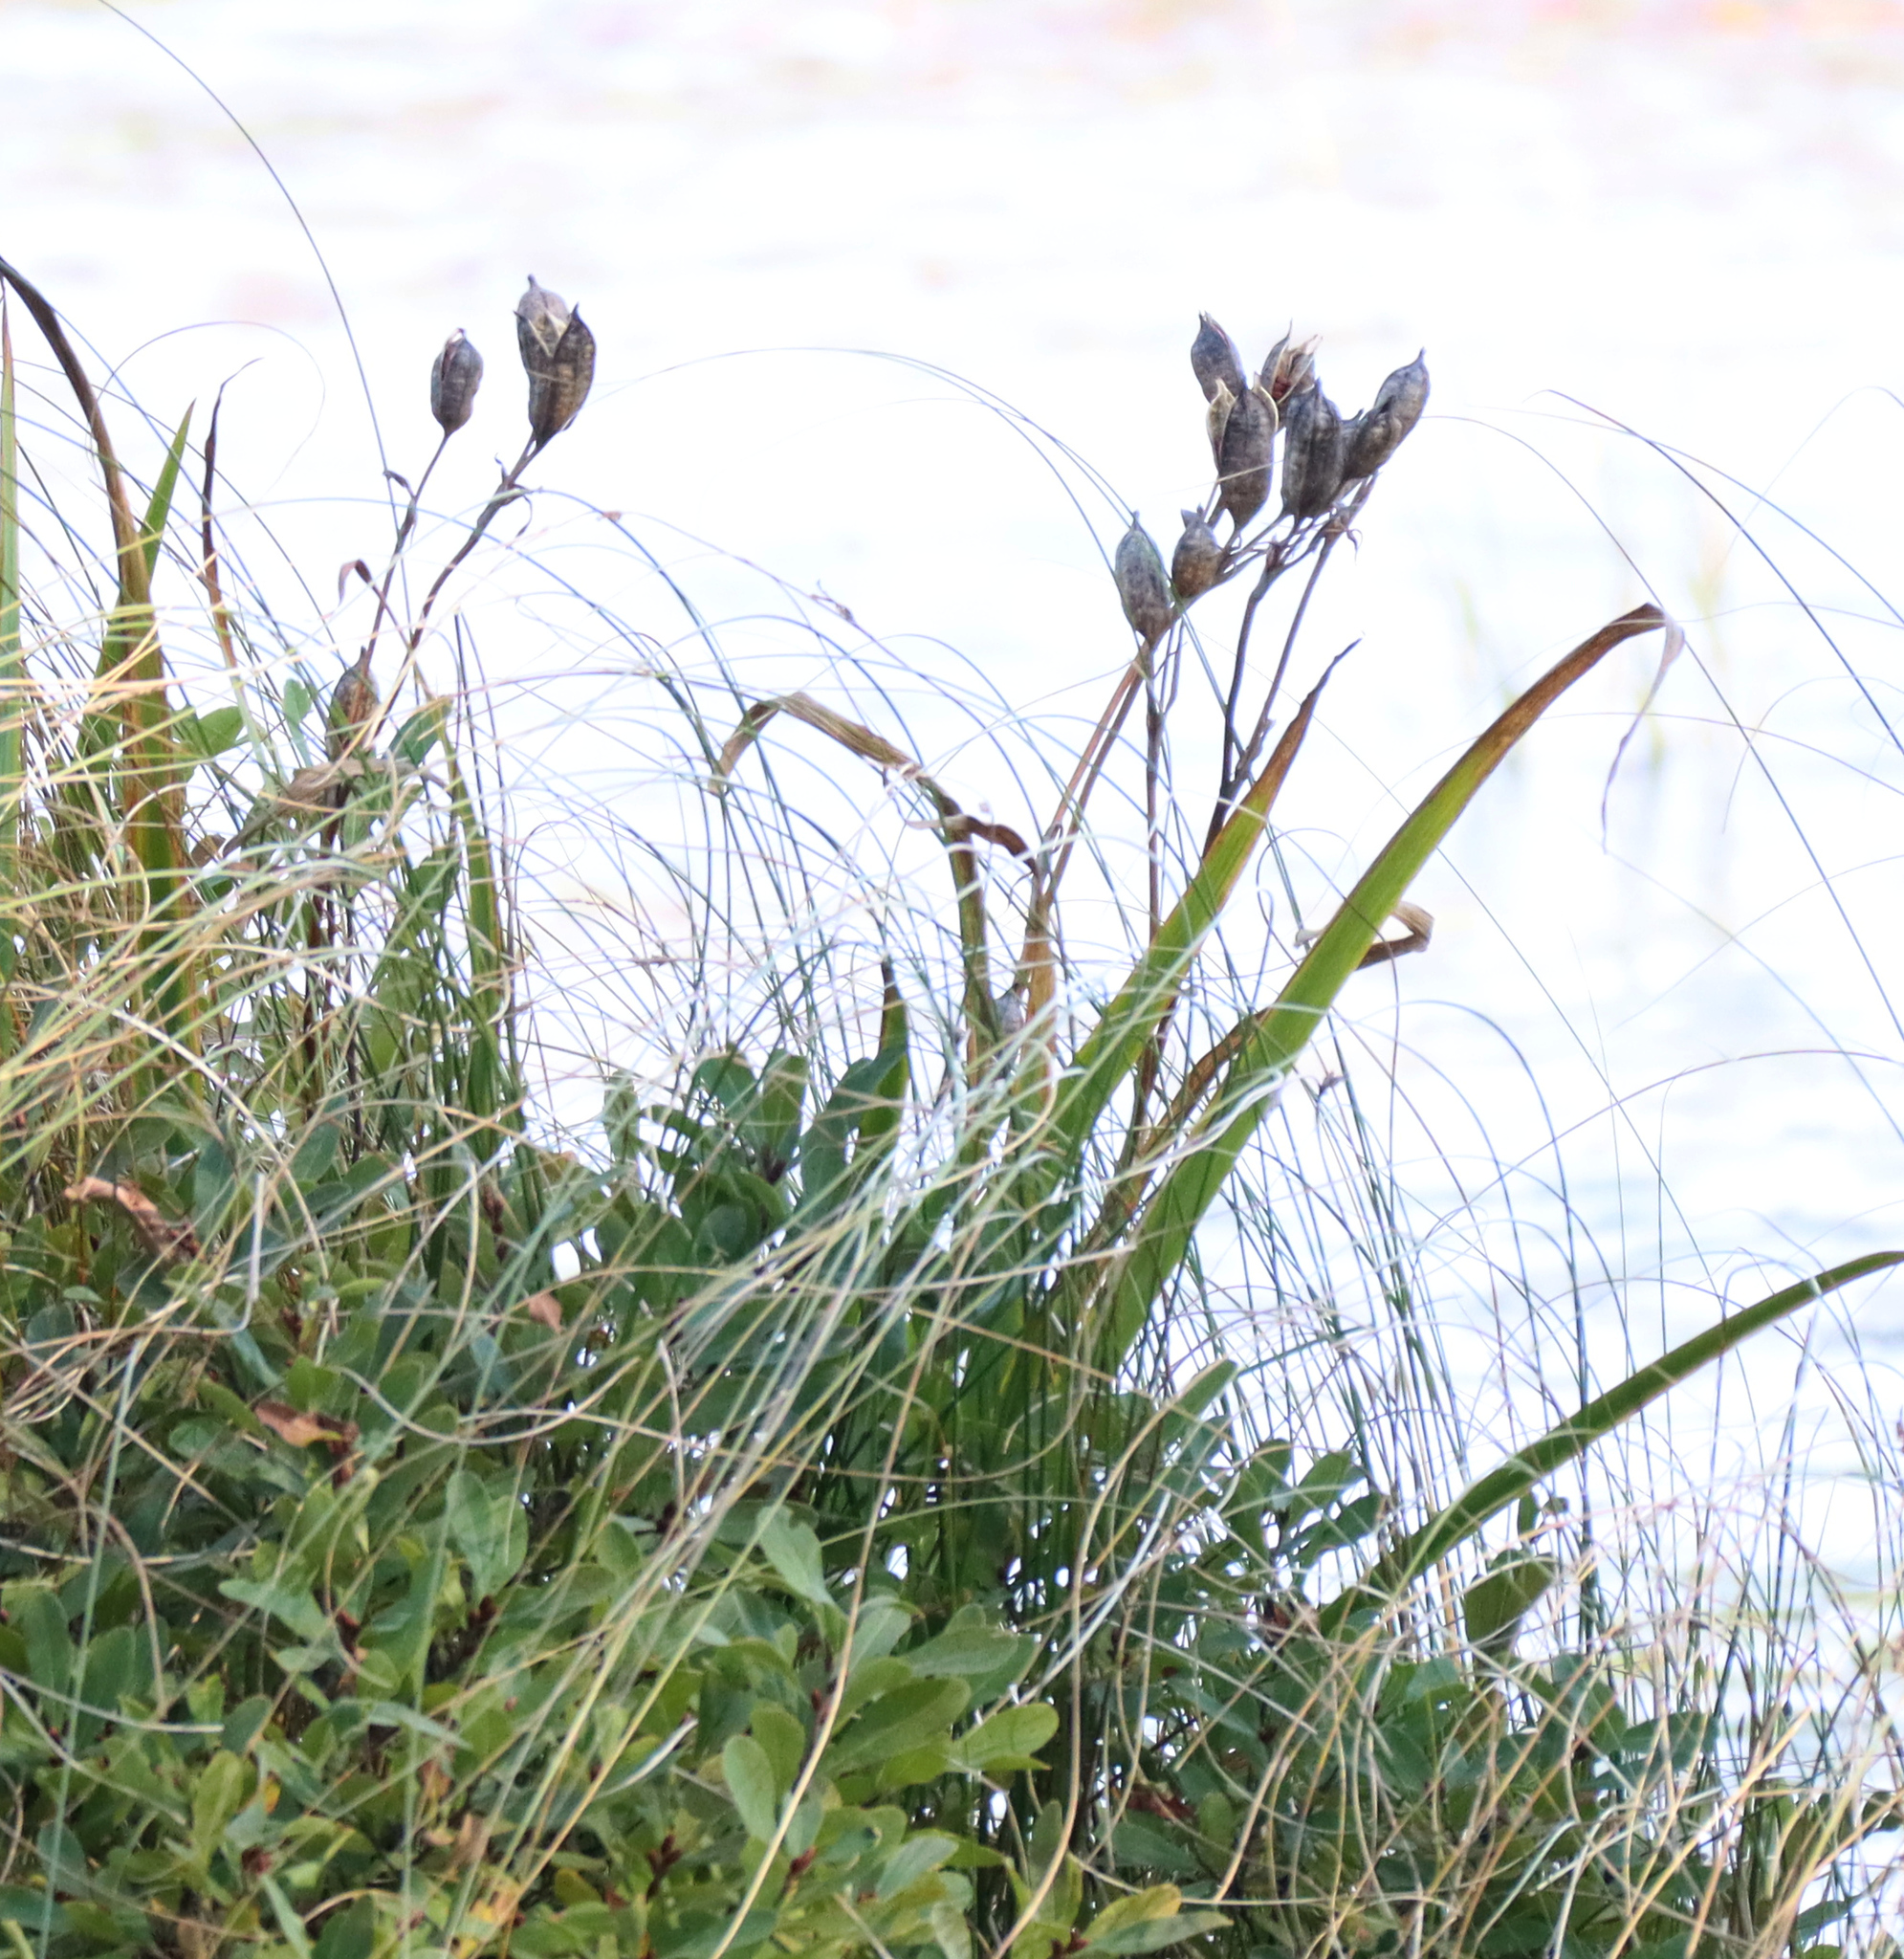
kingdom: Plantae
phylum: Tracheophyta
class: Liliopsida
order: Asparagales
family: Iridaceae
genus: Iris
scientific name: Iris versicolor
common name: Purple iris
